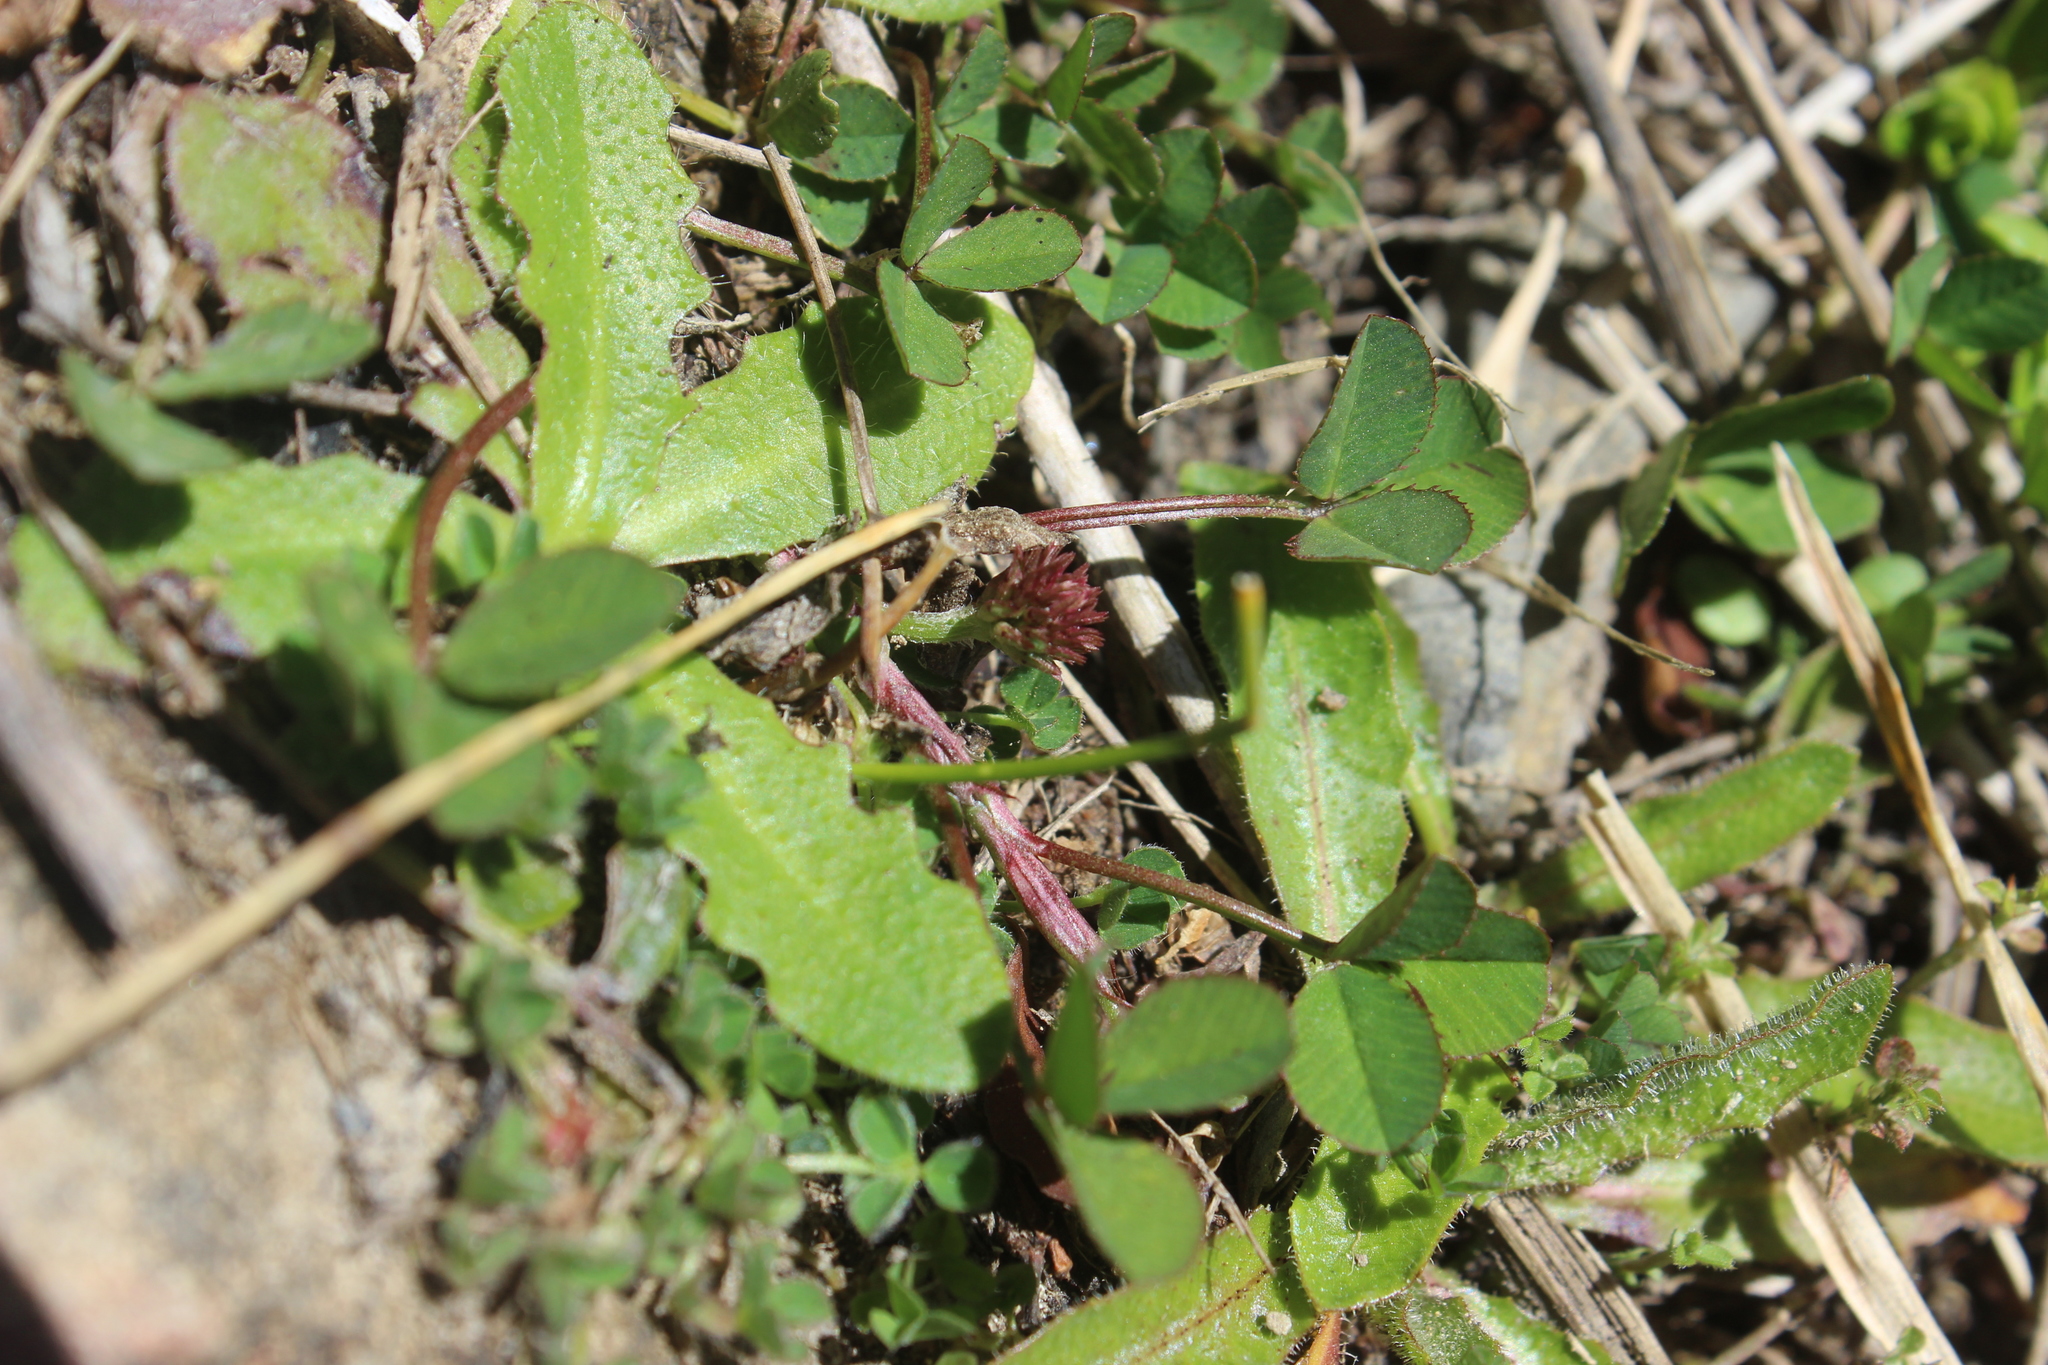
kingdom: Plantae
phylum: Tracheophyta
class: Magnoliopsida
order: Fabales
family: Fabaceae
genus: Trifolium
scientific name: Trifolium fragiferum
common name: Strawberry clover
